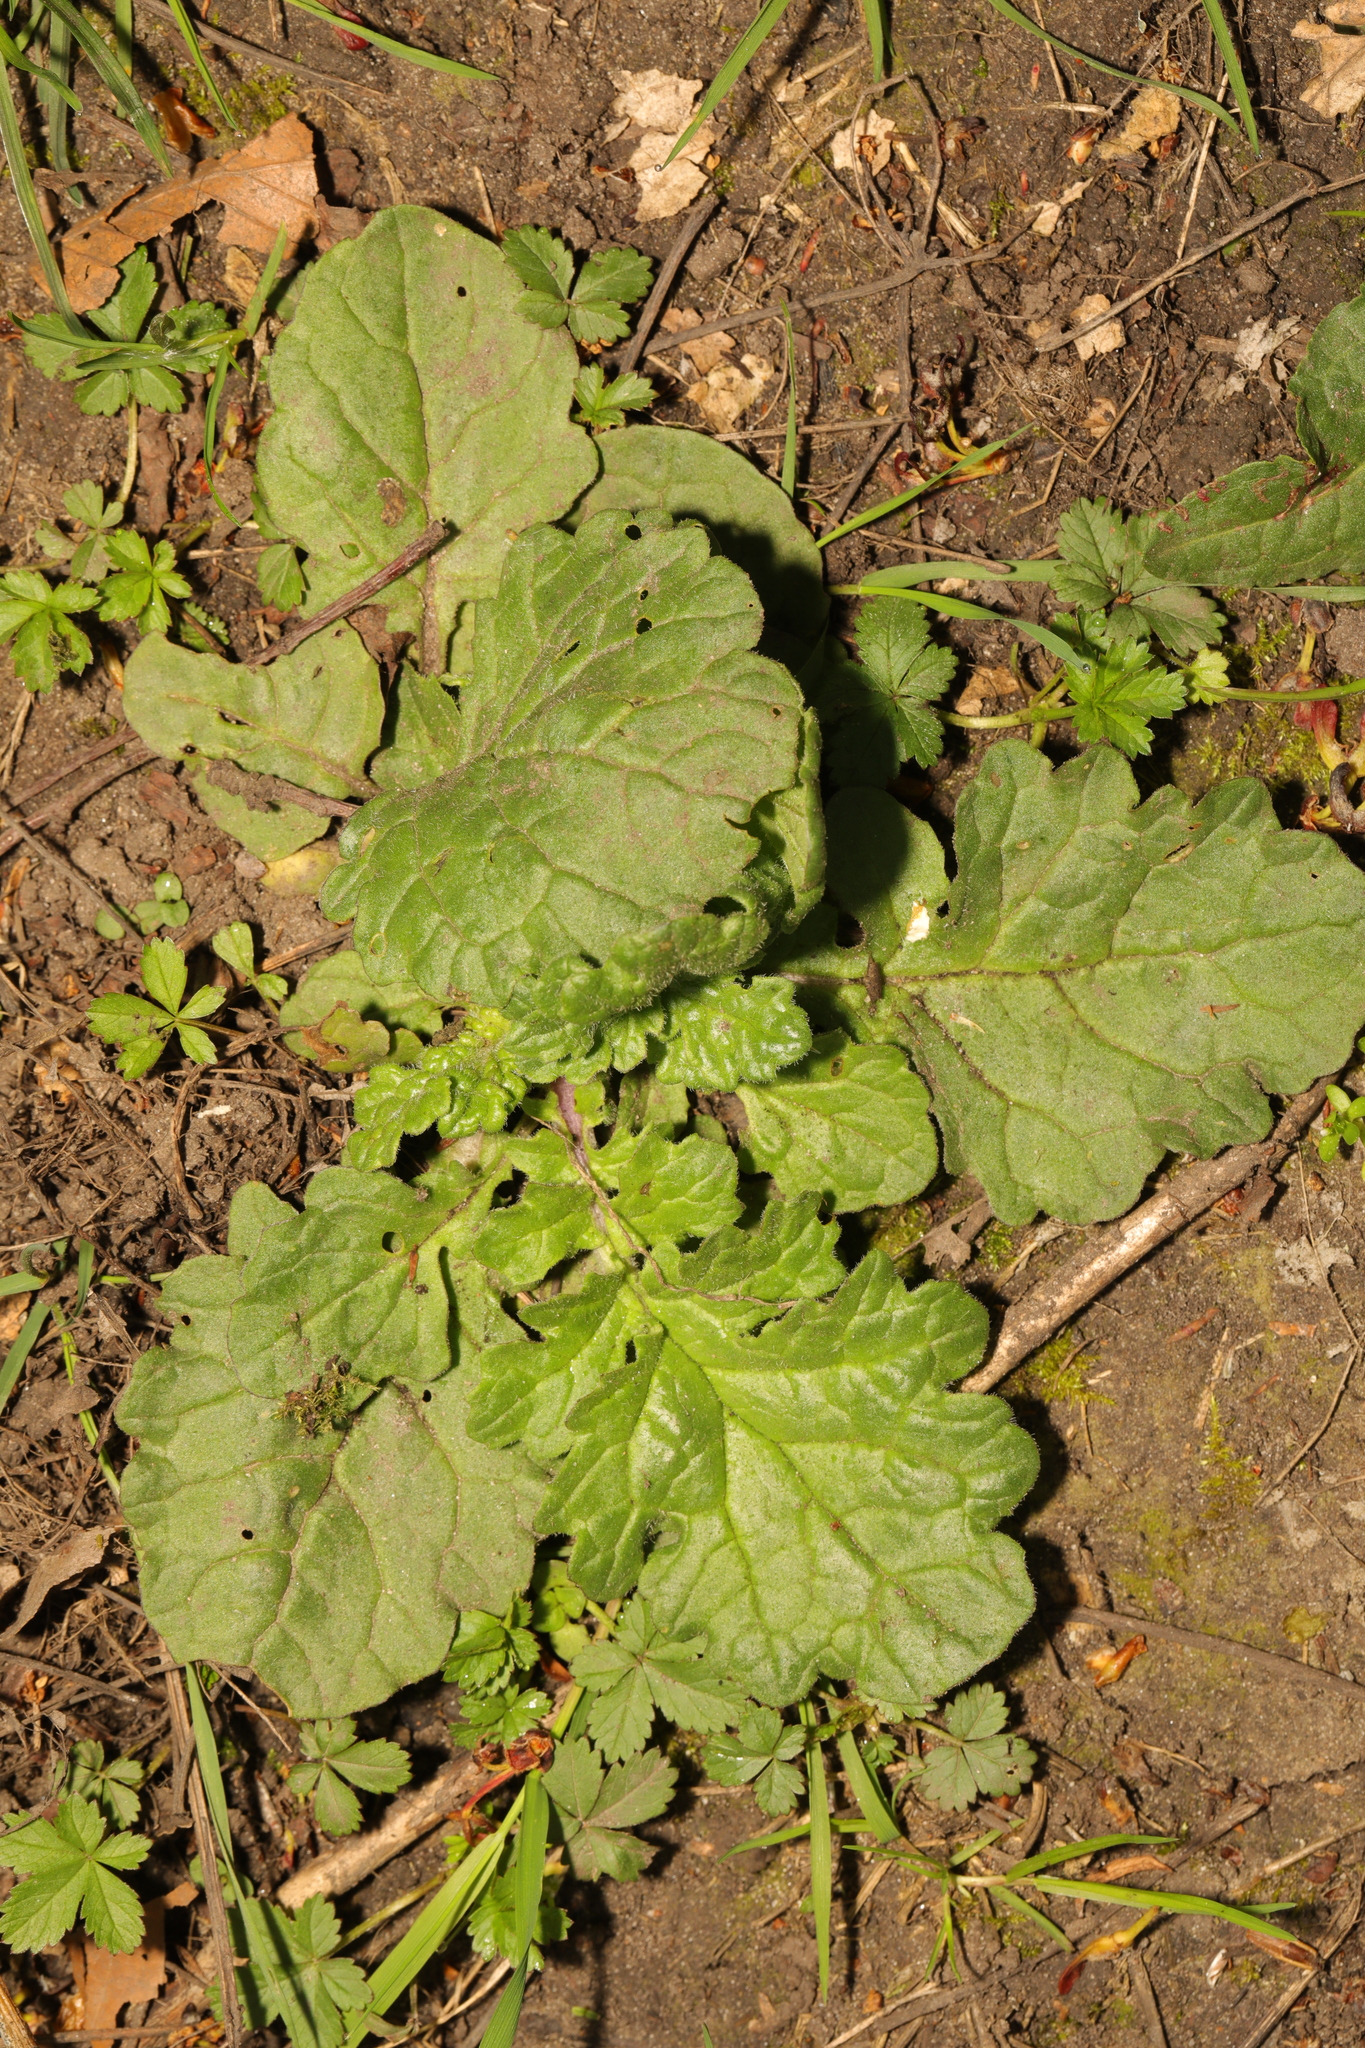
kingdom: Plantae
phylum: Tracheophyta
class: Magnoliopsida
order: Asterales
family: Asteraceae
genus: Jacobaea
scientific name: Jacobaea vulgaris
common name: Stinking willie
